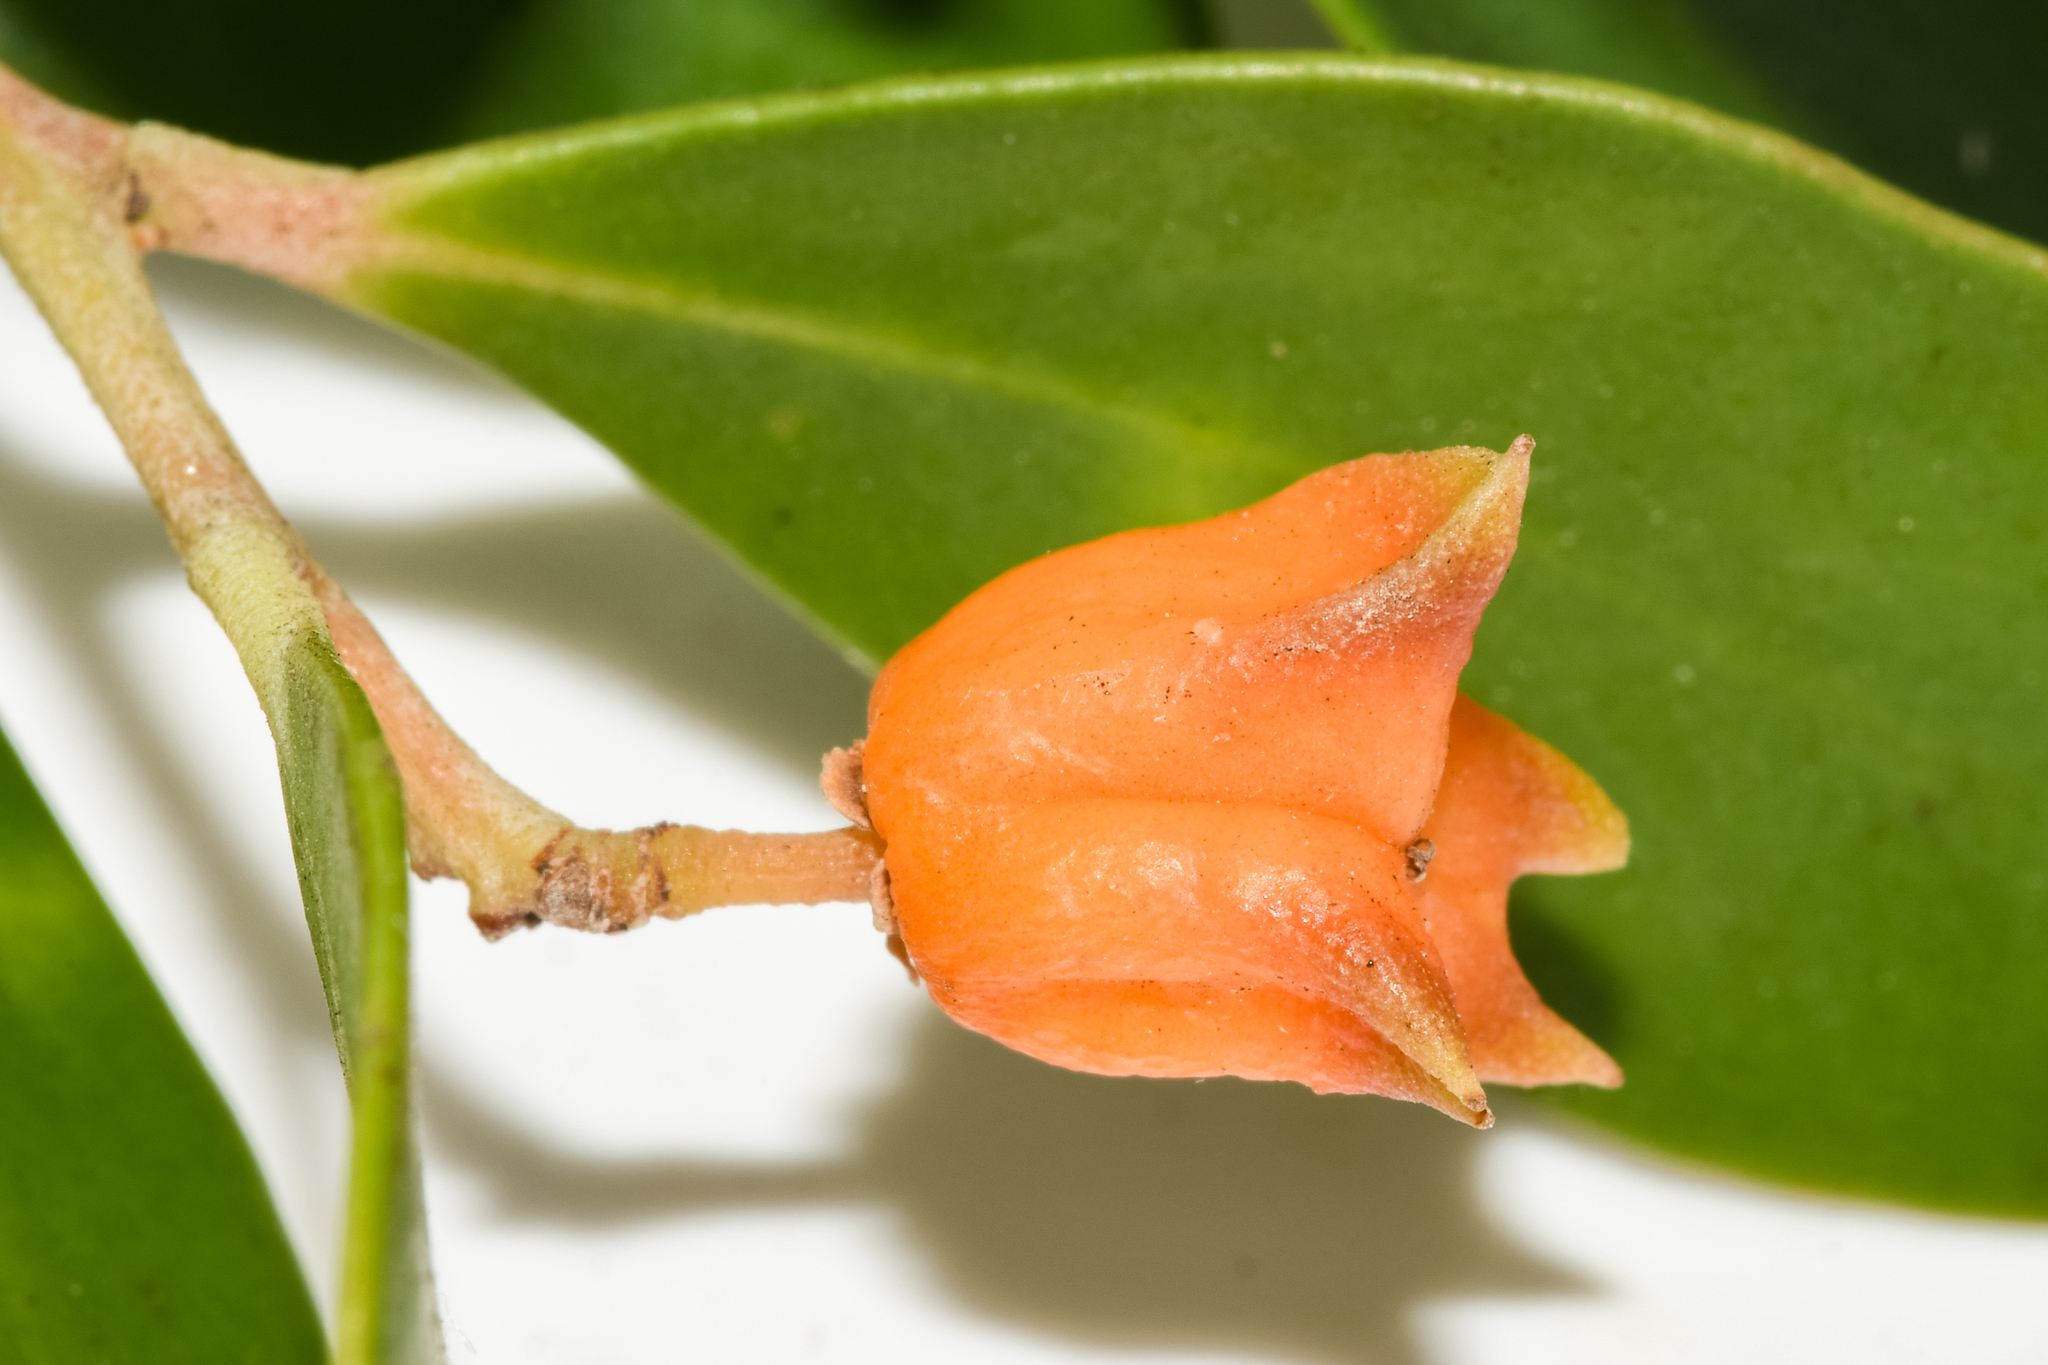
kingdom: Plantae
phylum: Tracheophyta
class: Magnoliopsida
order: Celastrales
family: Celastraceae
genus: Pterocelastrus
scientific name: Pterocelastrus tricuspidatus
